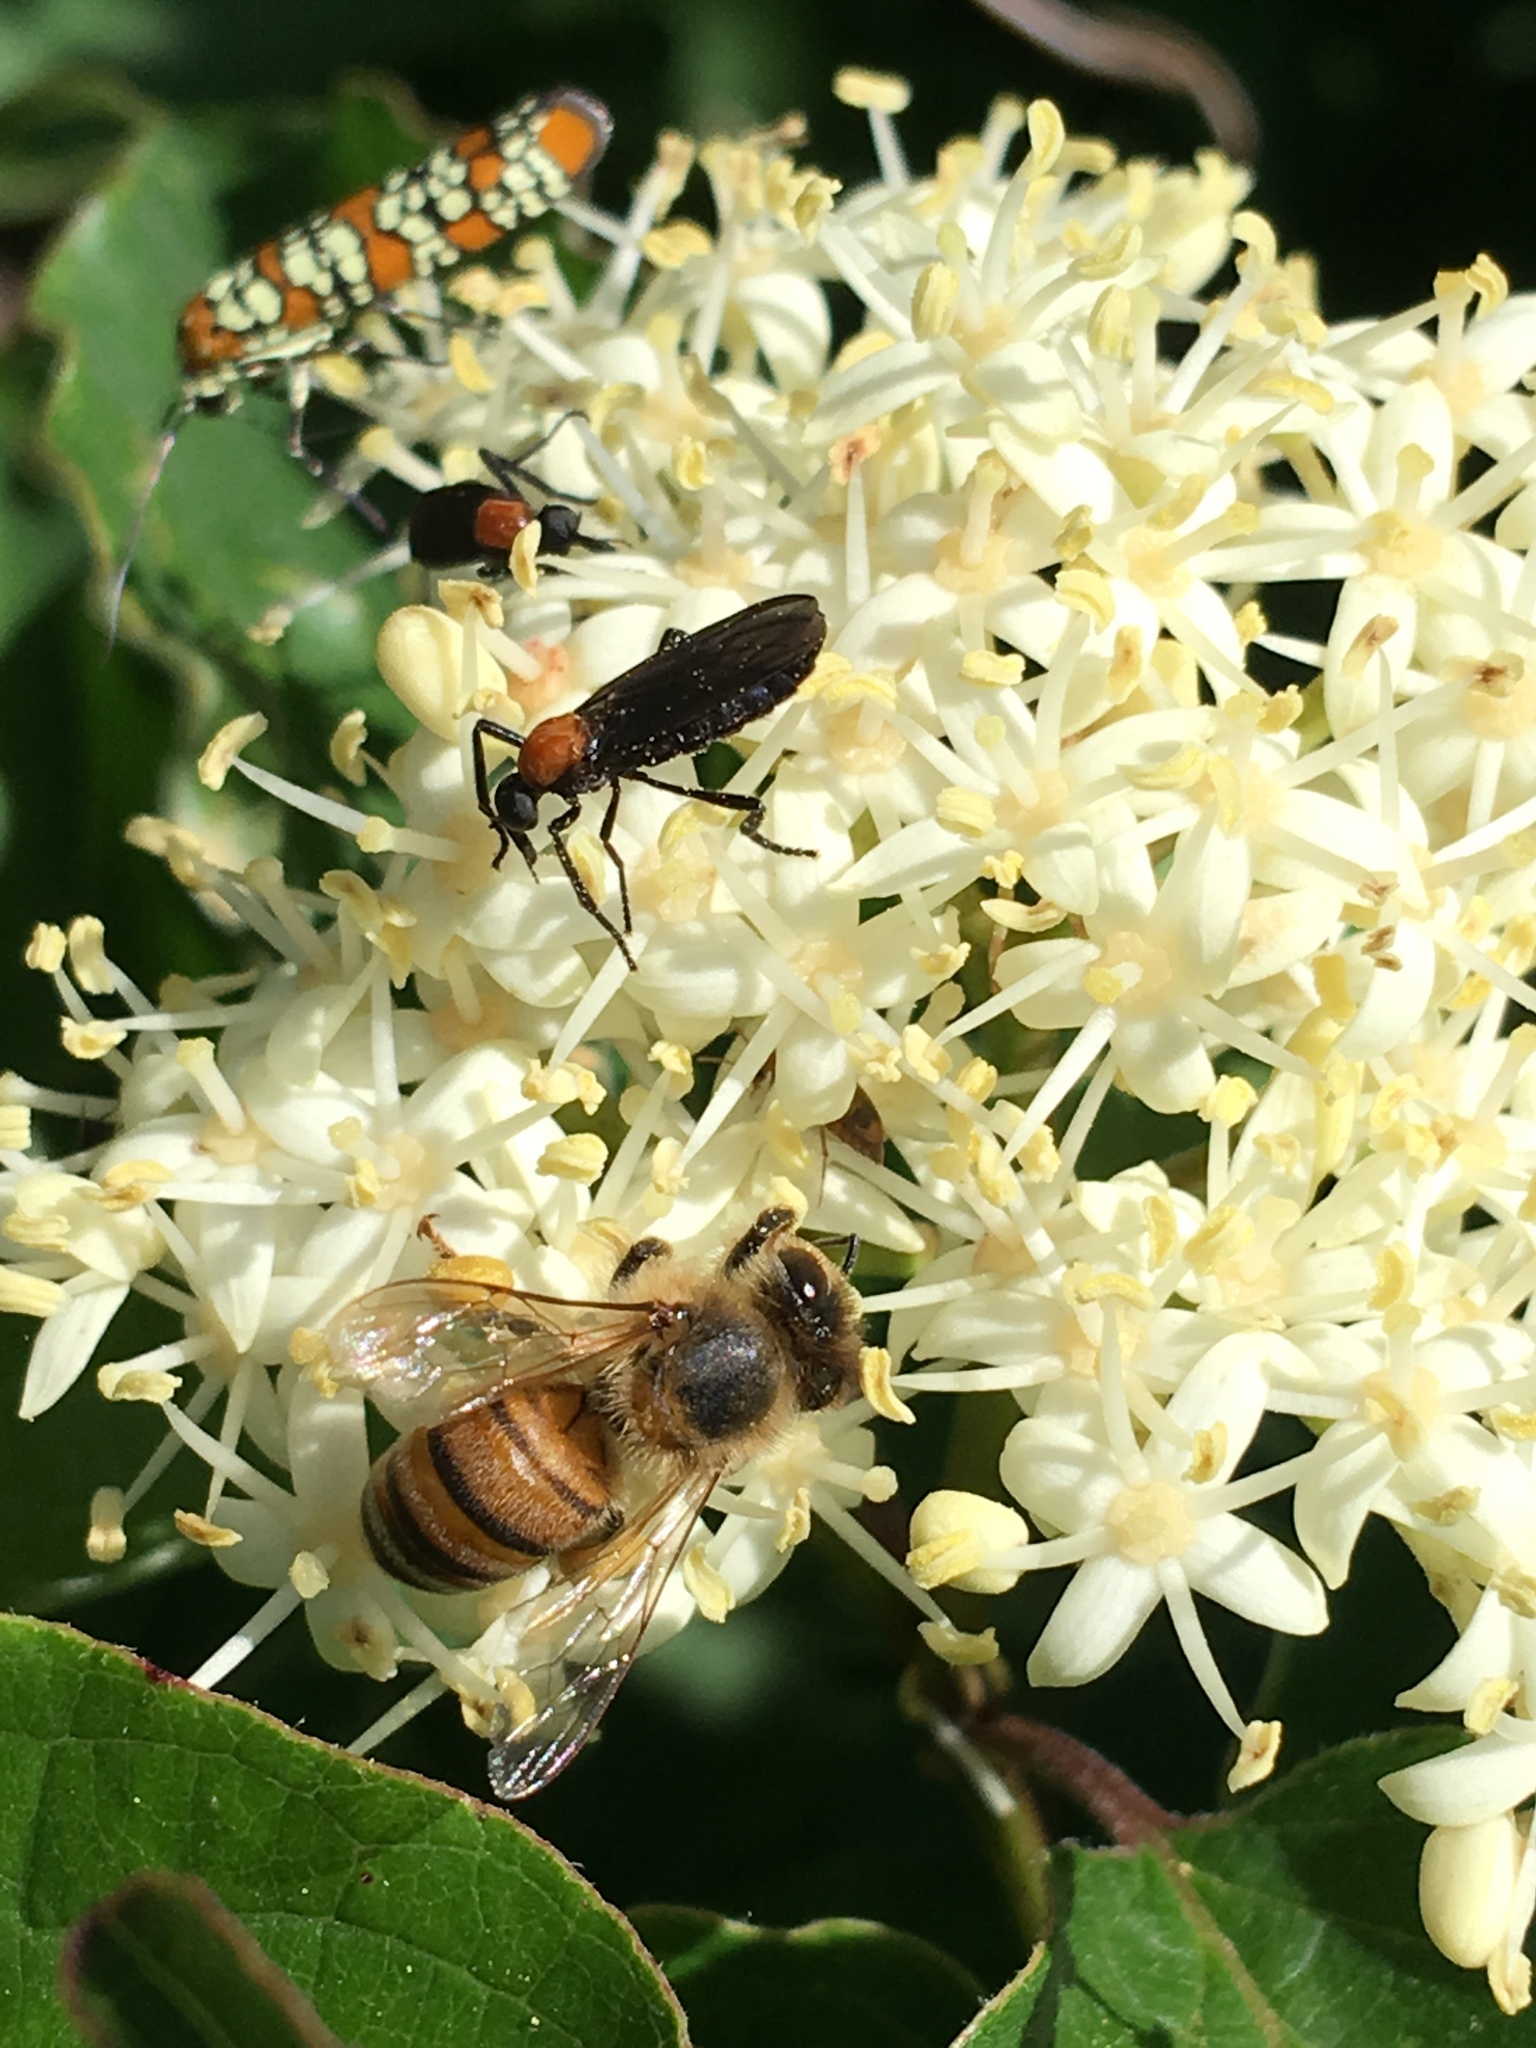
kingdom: Animalia
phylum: Arthropoda
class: Insecta
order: Lepidoptera
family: Attevidae
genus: Atteva
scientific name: Atteva punctella
